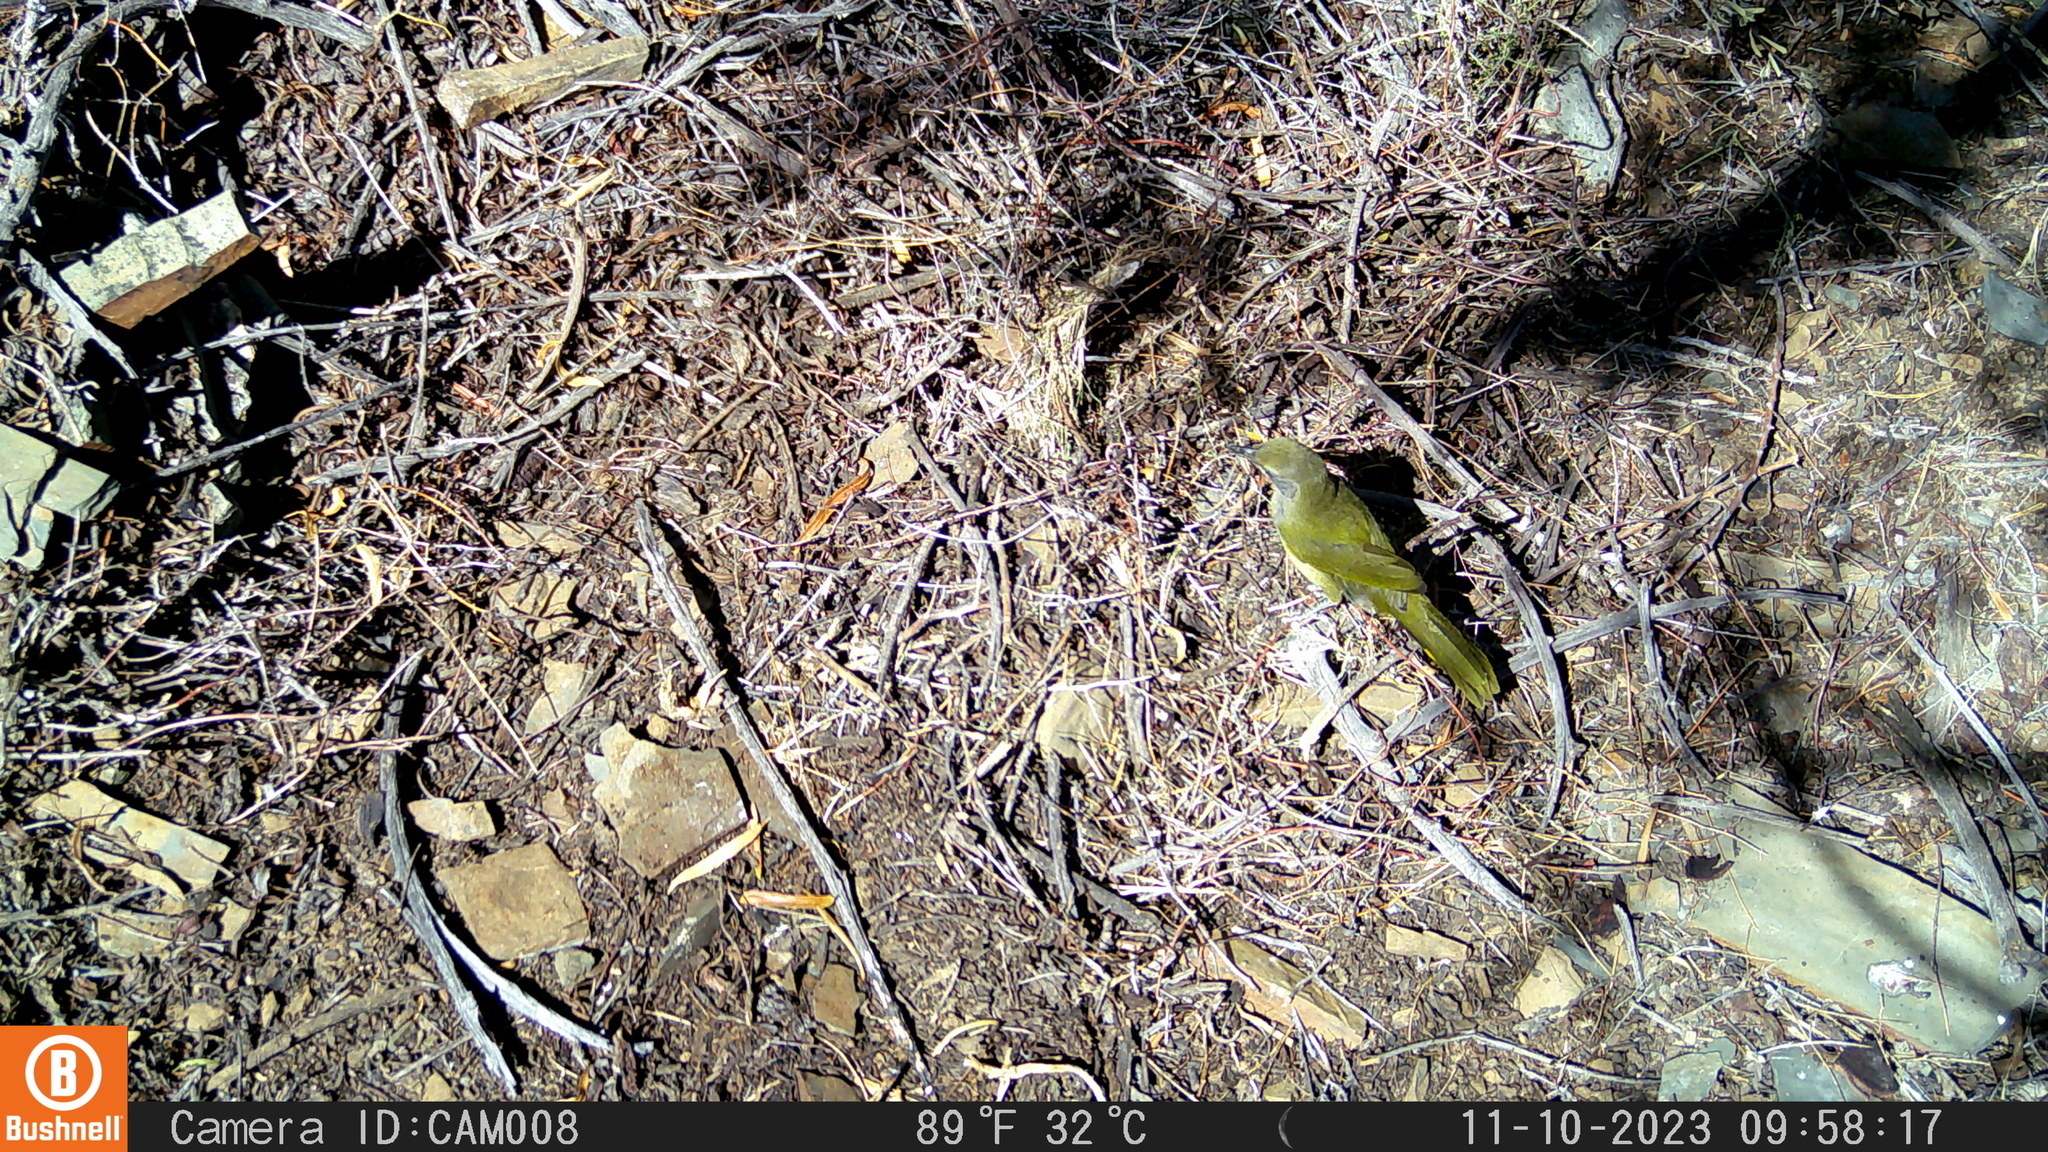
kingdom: Animalia
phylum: Chordata
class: Aves
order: Passeriformes
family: Malaconotidae
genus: Telophorus
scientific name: Telophorus zeylonus
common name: Bokmakierie
